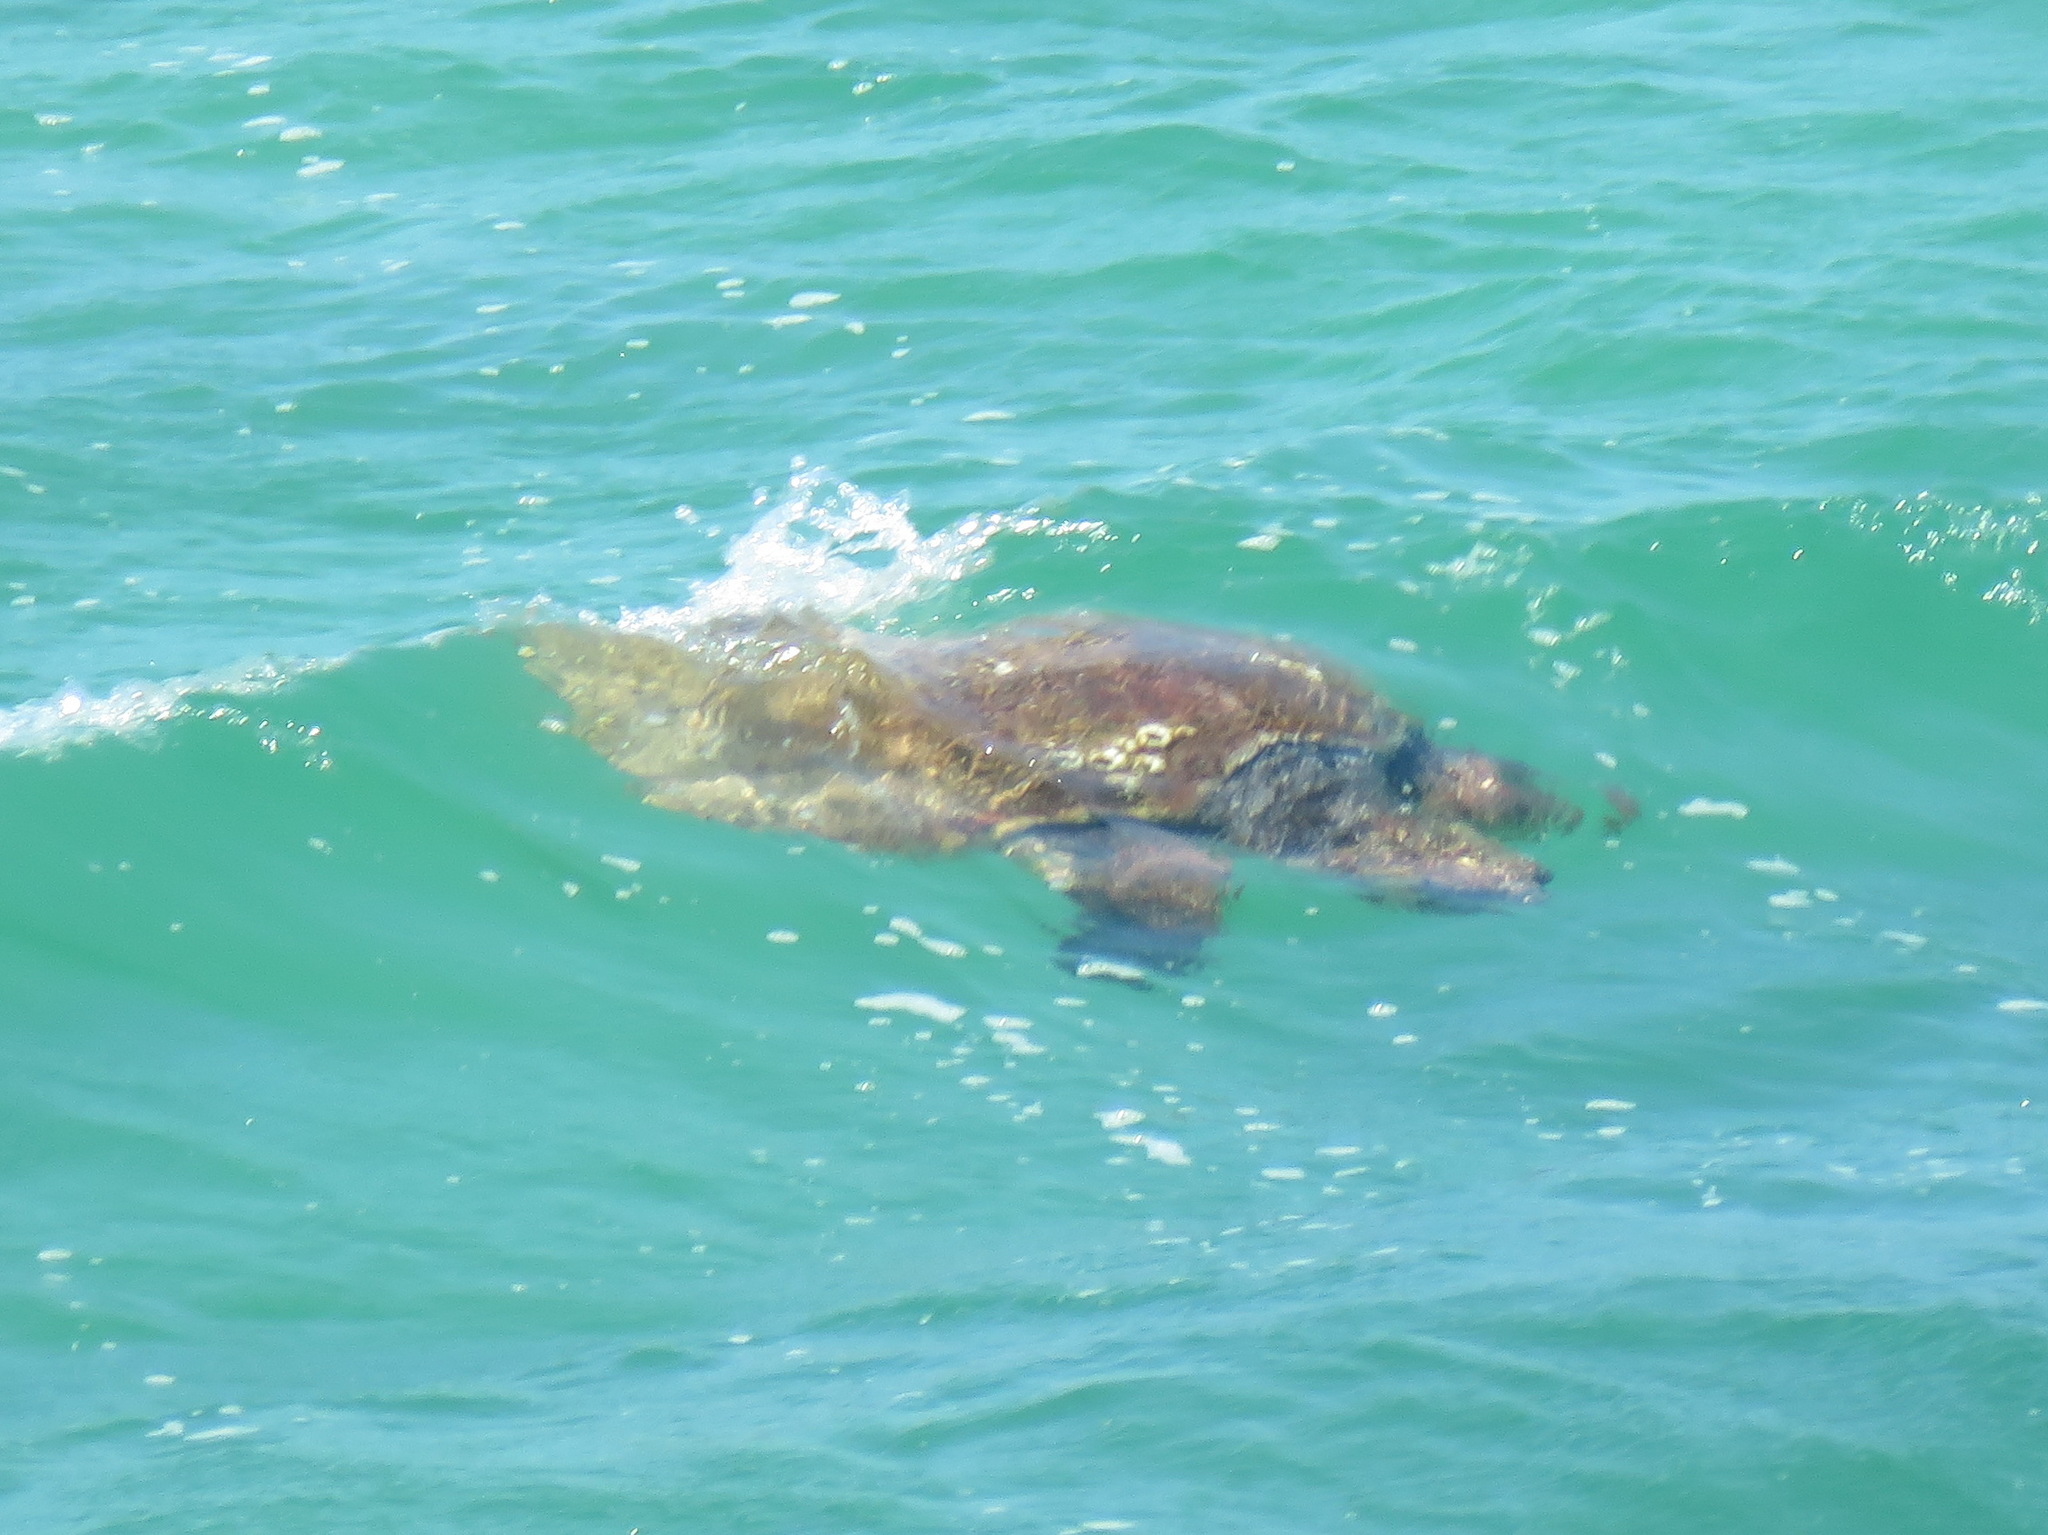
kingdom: Animalia
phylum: Chordata
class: Testudines
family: Cheloniidae
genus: Caretta
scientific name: Caretta caretta
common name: Loggerhead sea turtle
